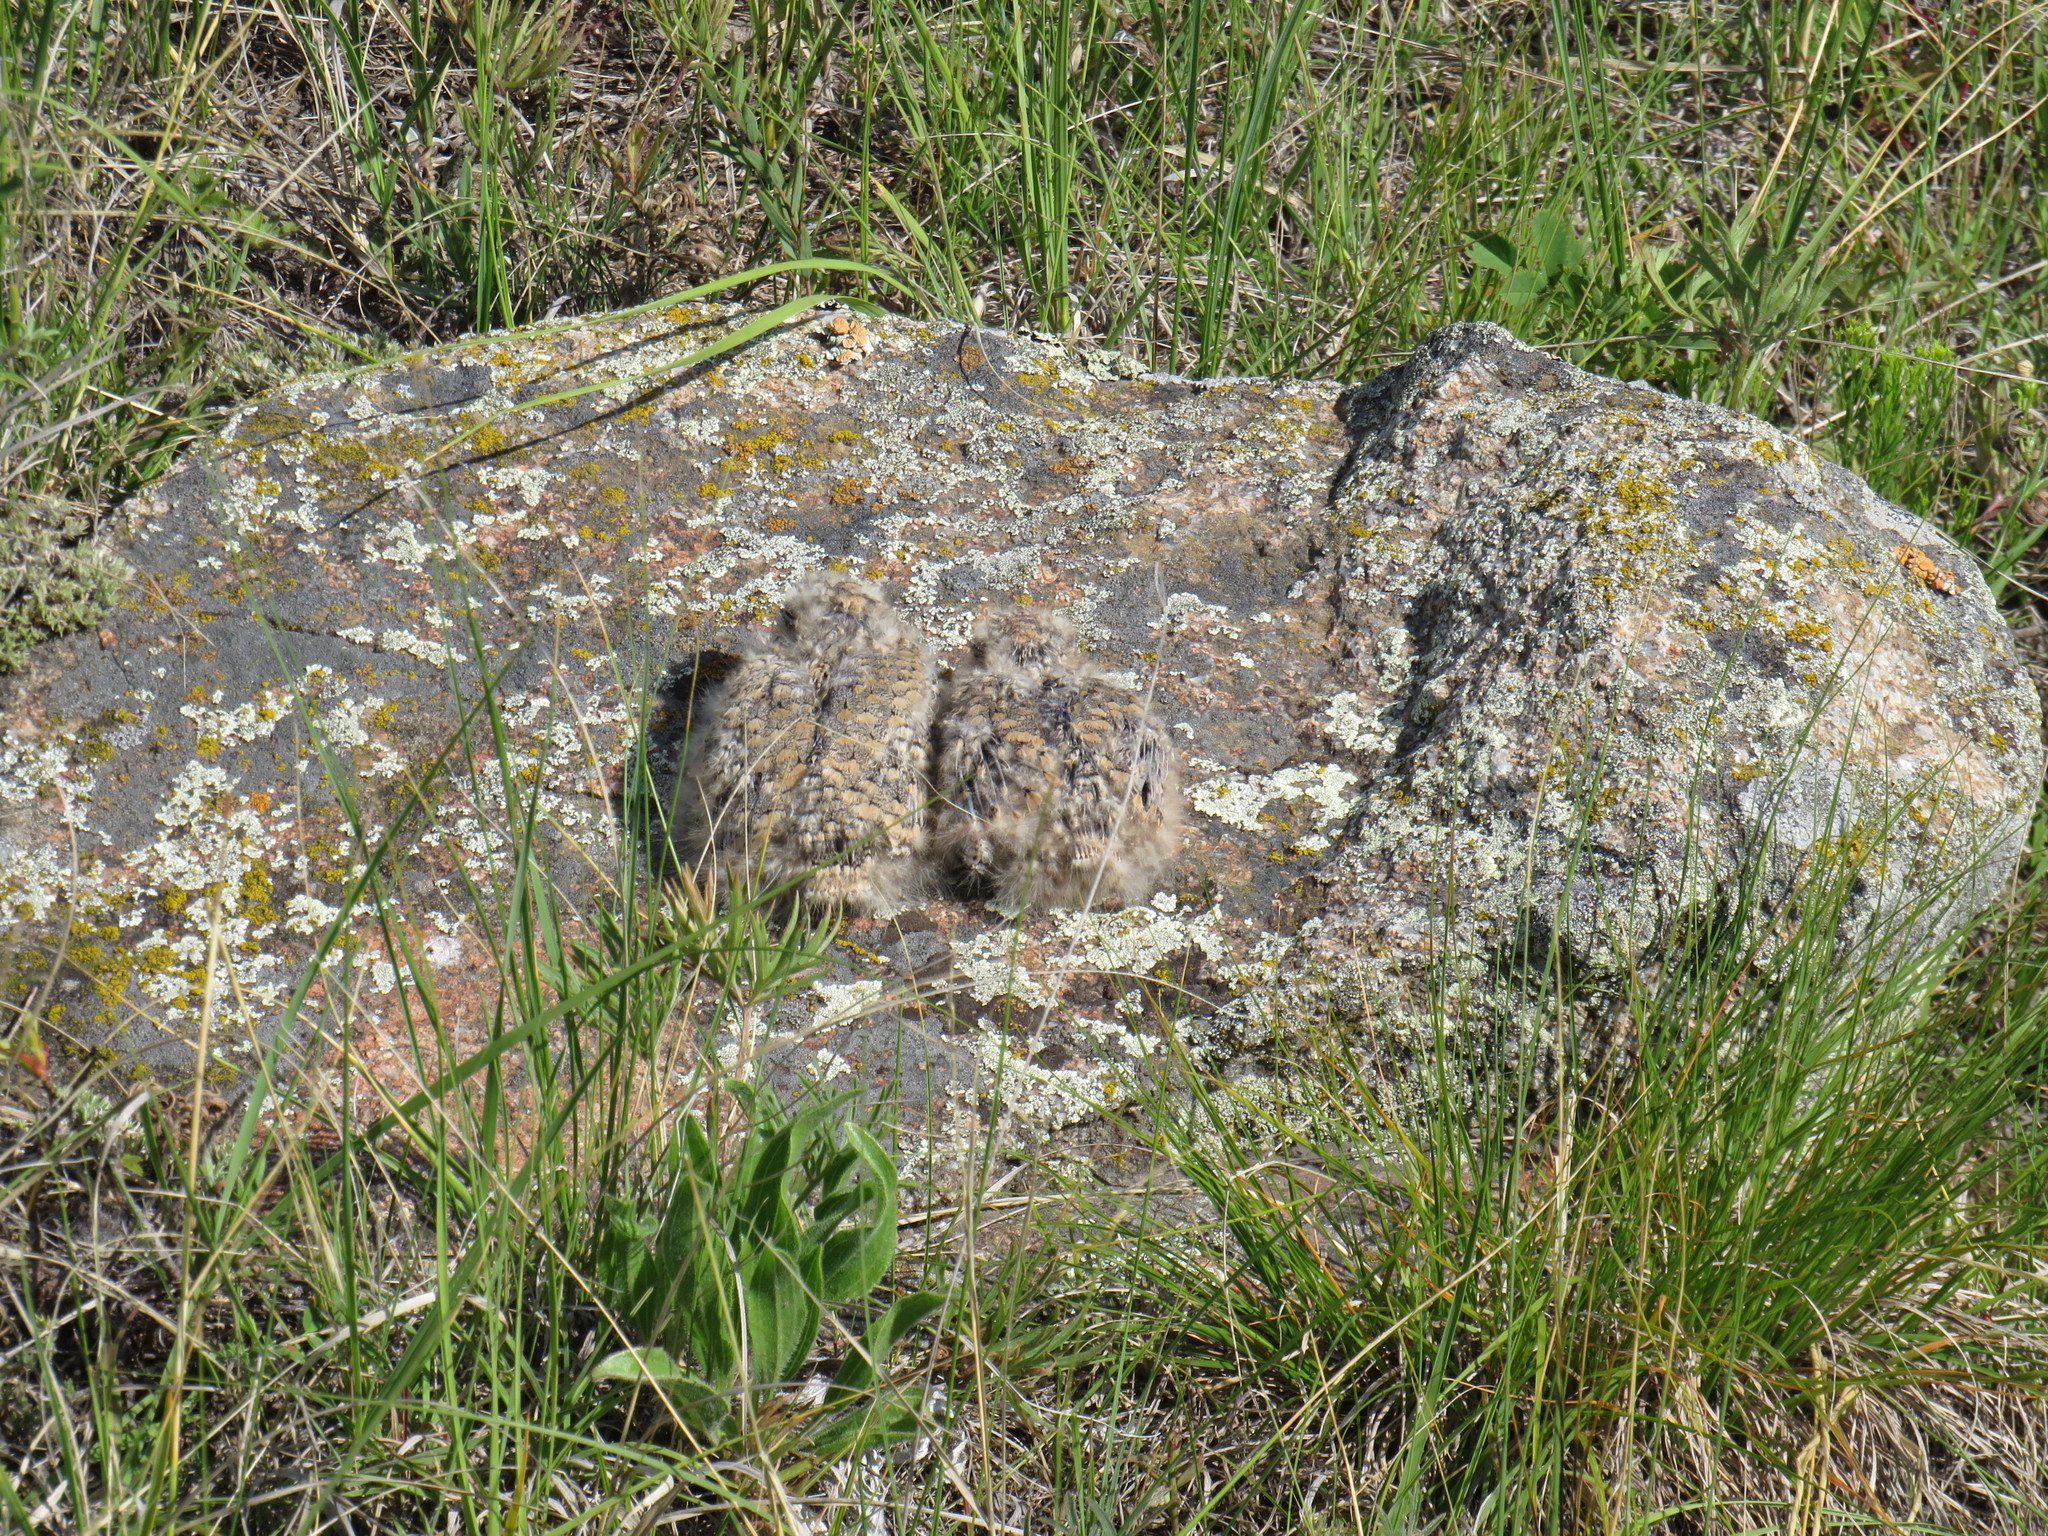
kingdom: Animalia
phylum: Chordata
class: Aves
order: Caprimulgiformes
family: Caprimulgidae
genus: Chordeiles
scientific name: Chordeiles minor
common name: Common nighthawk
